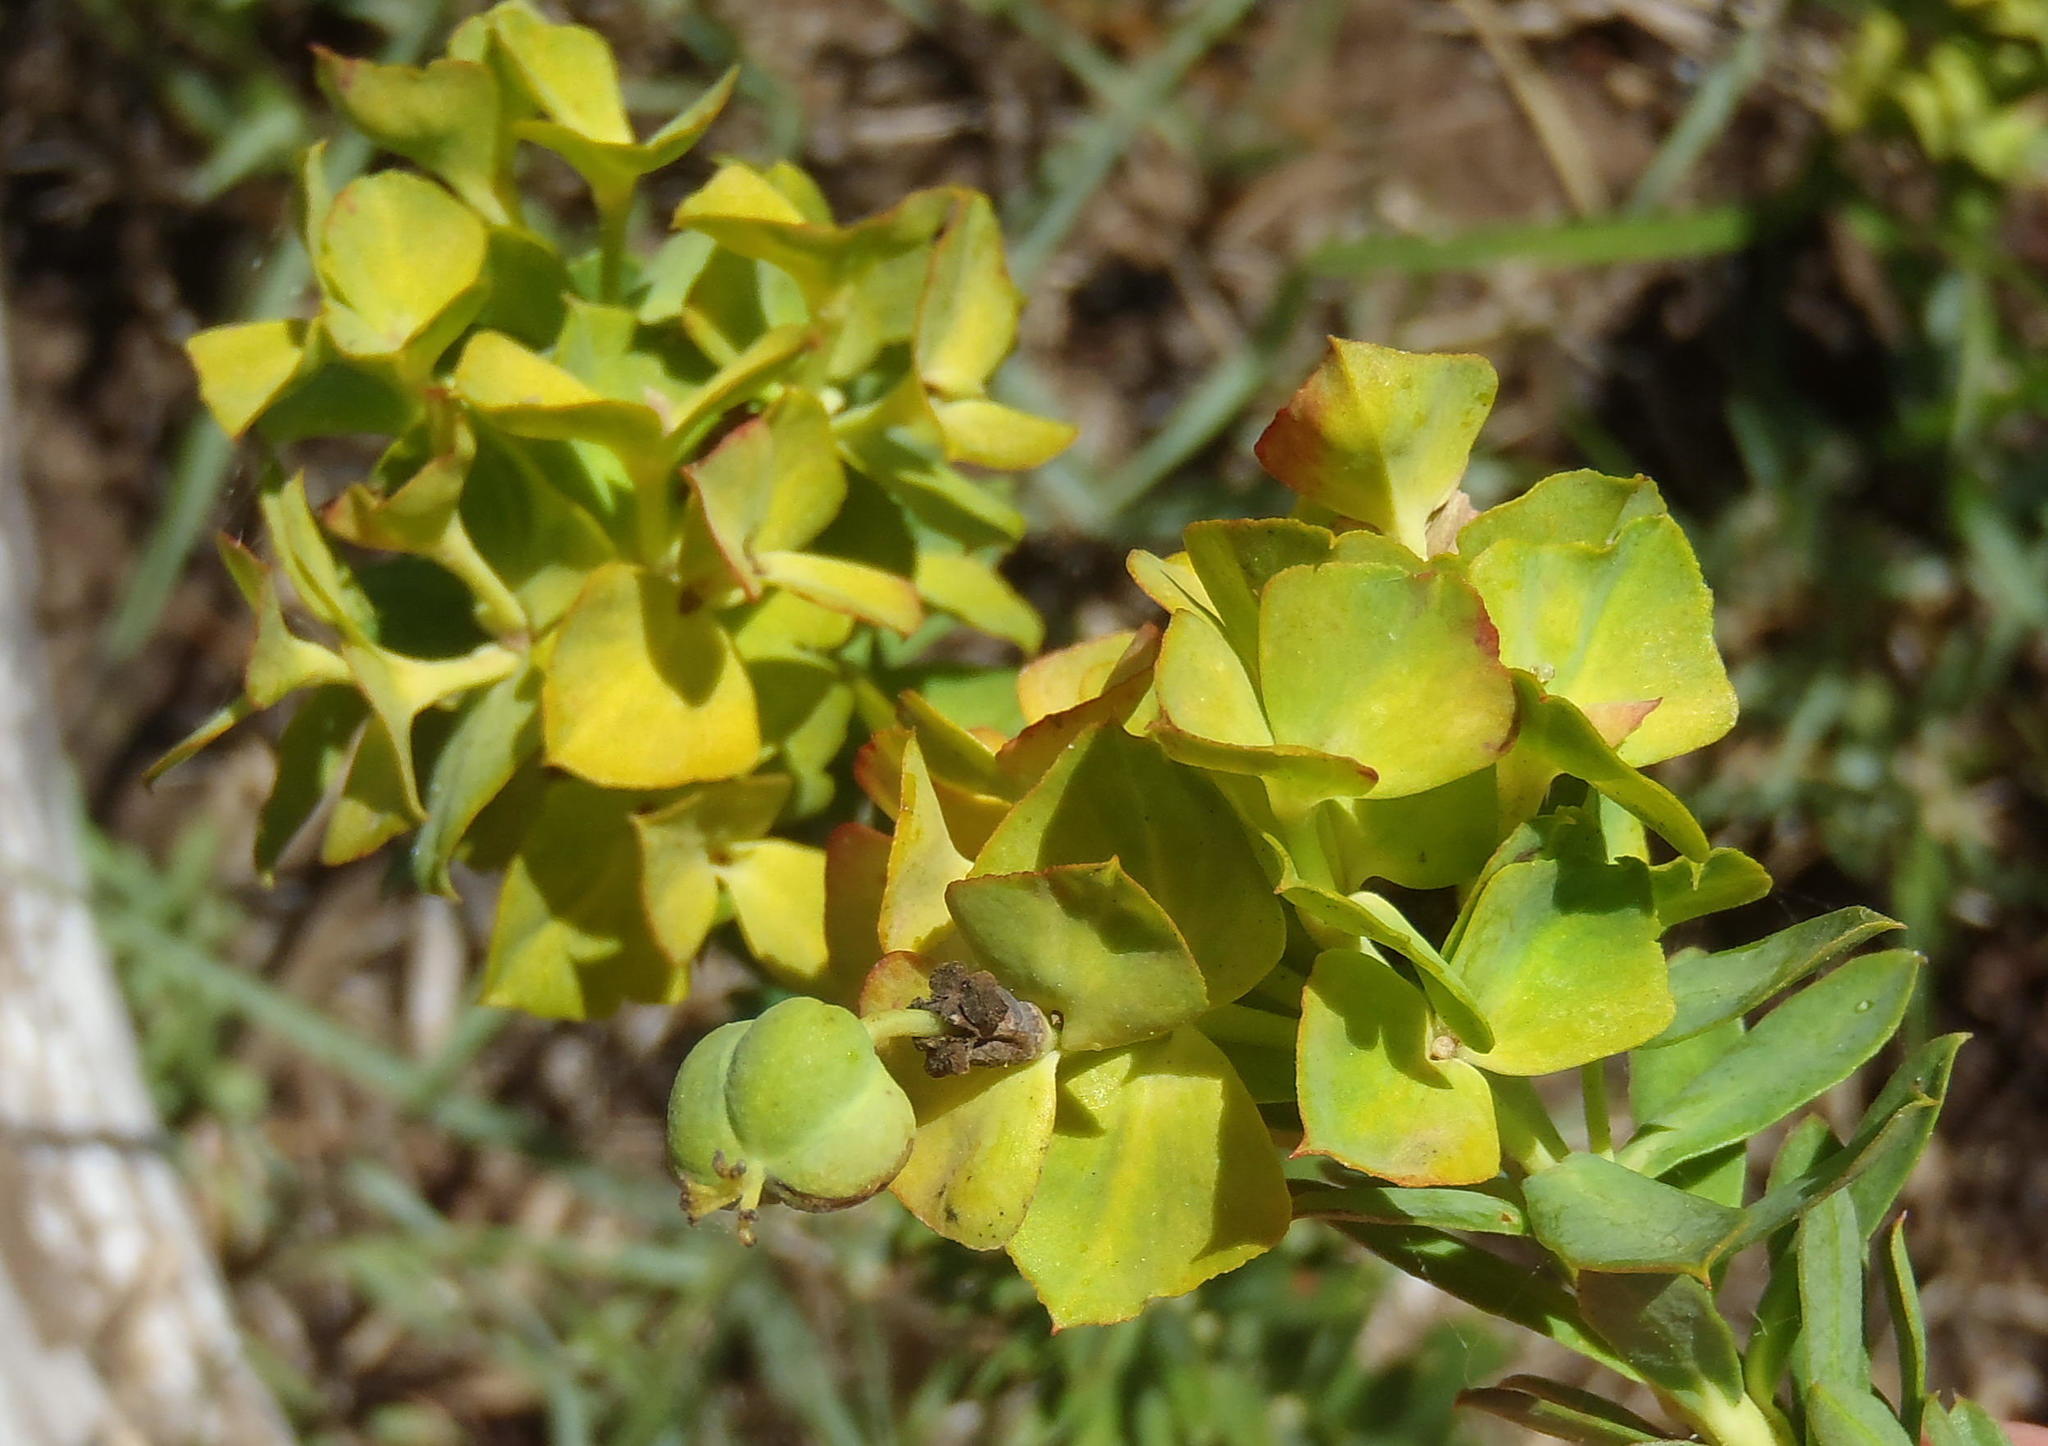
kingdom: Plantae
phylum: Tracheophyta
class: Magnoliopsida
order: Malpighiales
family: Euphorbiaceae
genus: Euphorbia
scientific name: Euphorbia genistoides
